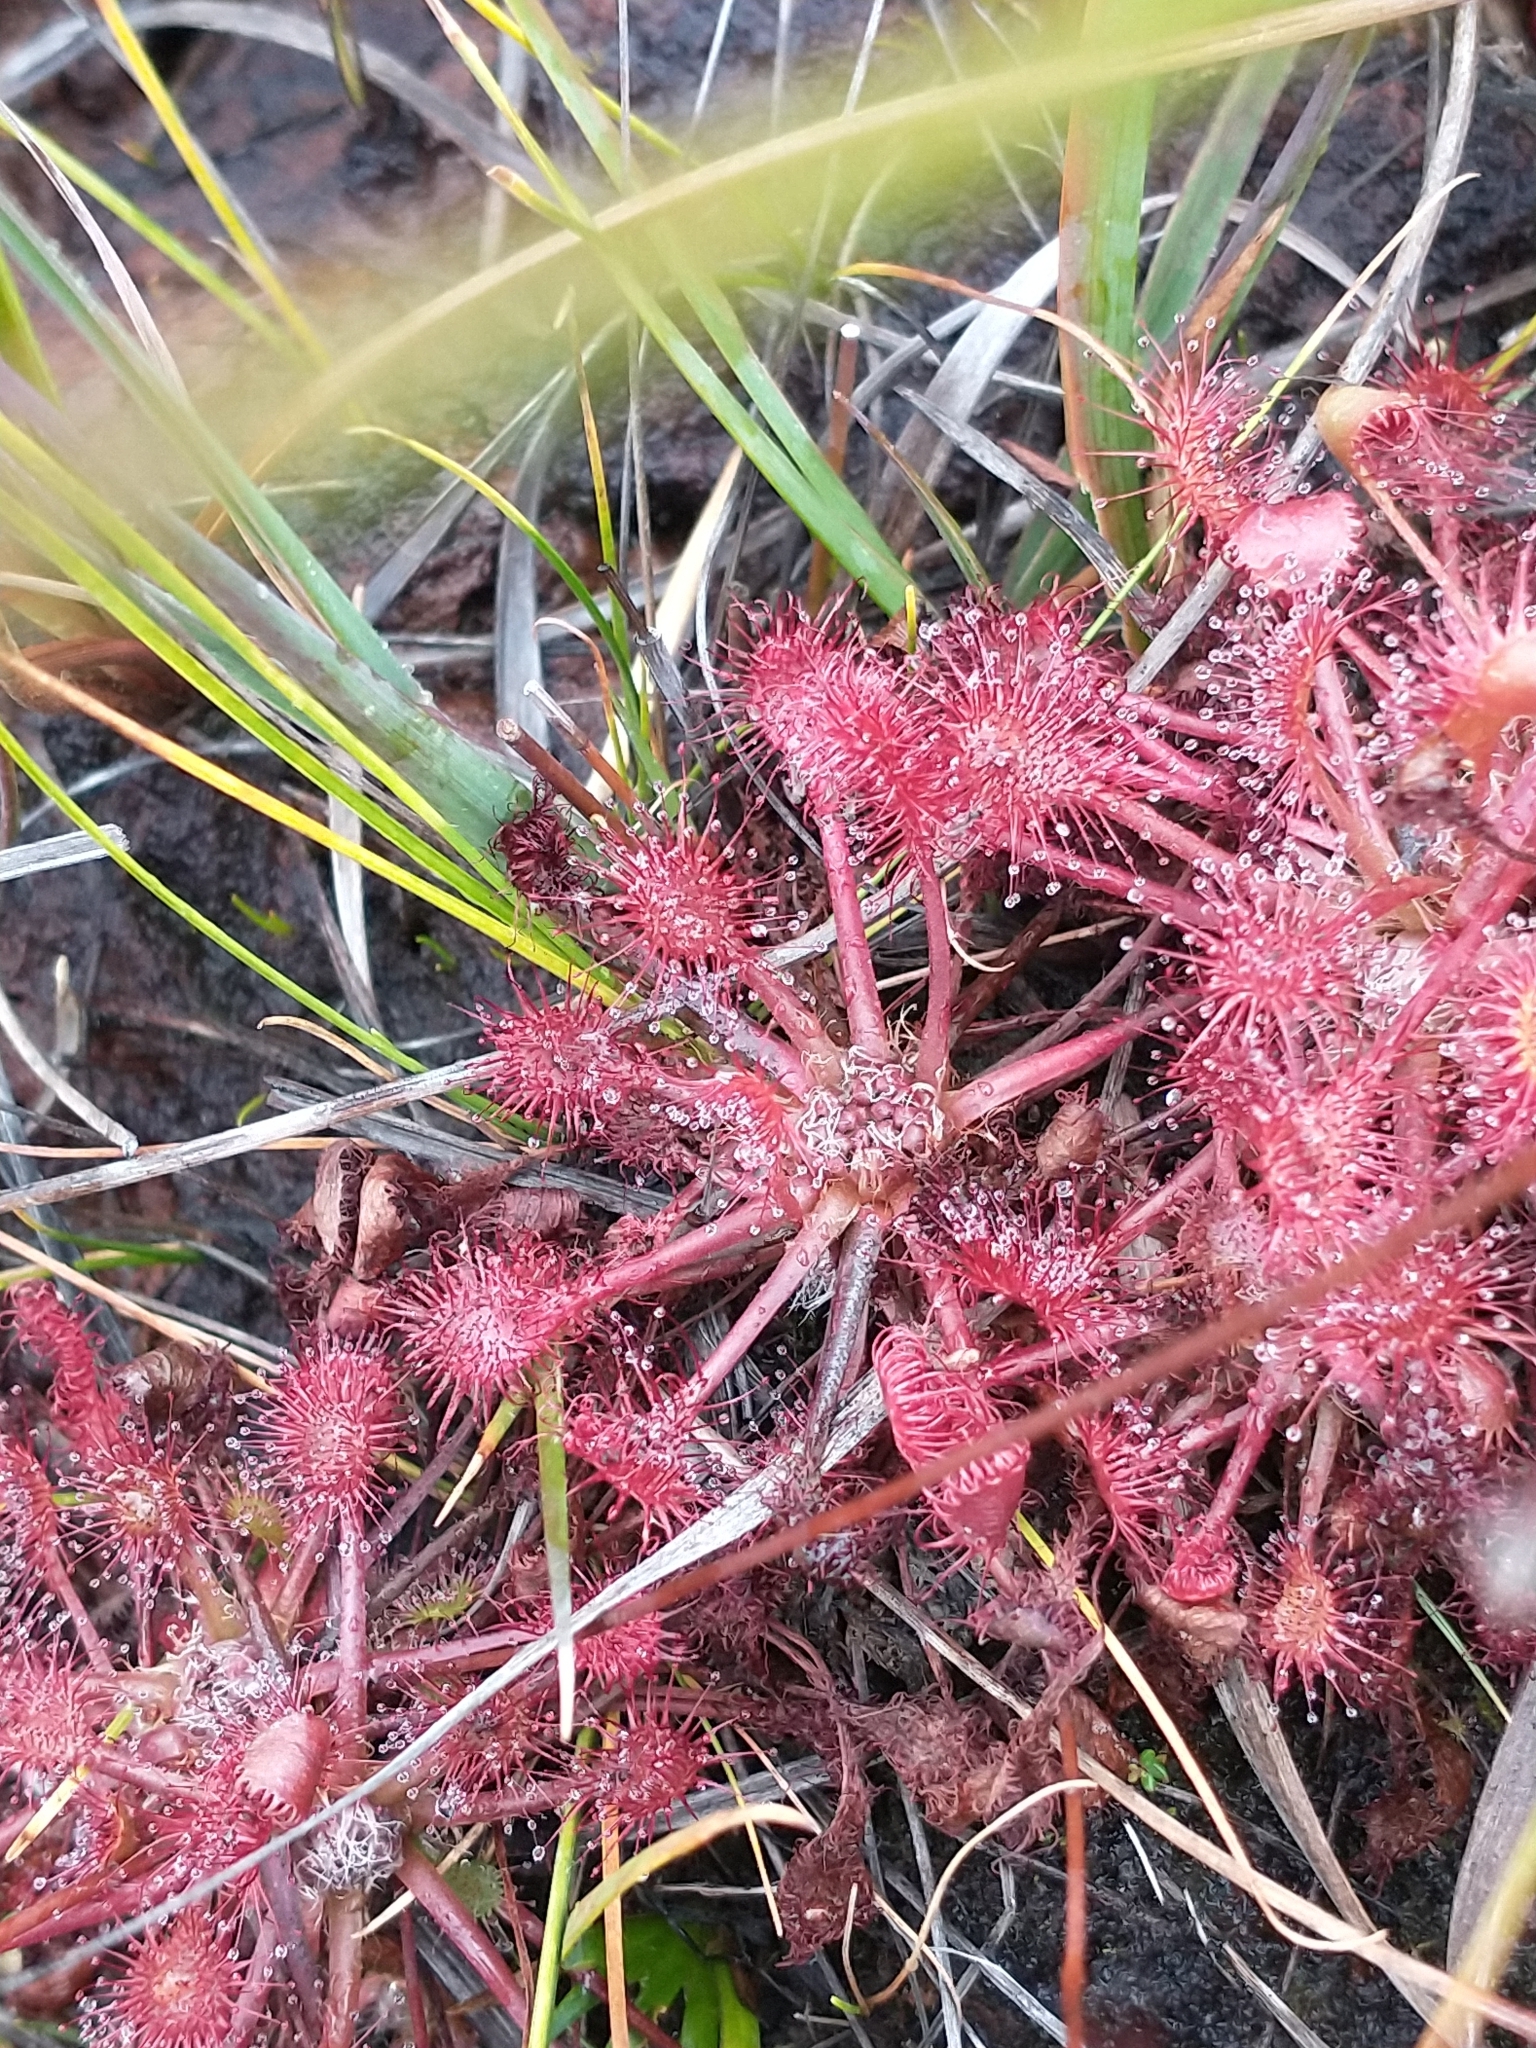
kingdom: Plantae
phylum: Tracheophyta
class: Magnoliopsida
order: Caryophyllales
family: Droseraceae
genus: Drosera
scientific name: Drosera eloisiana
